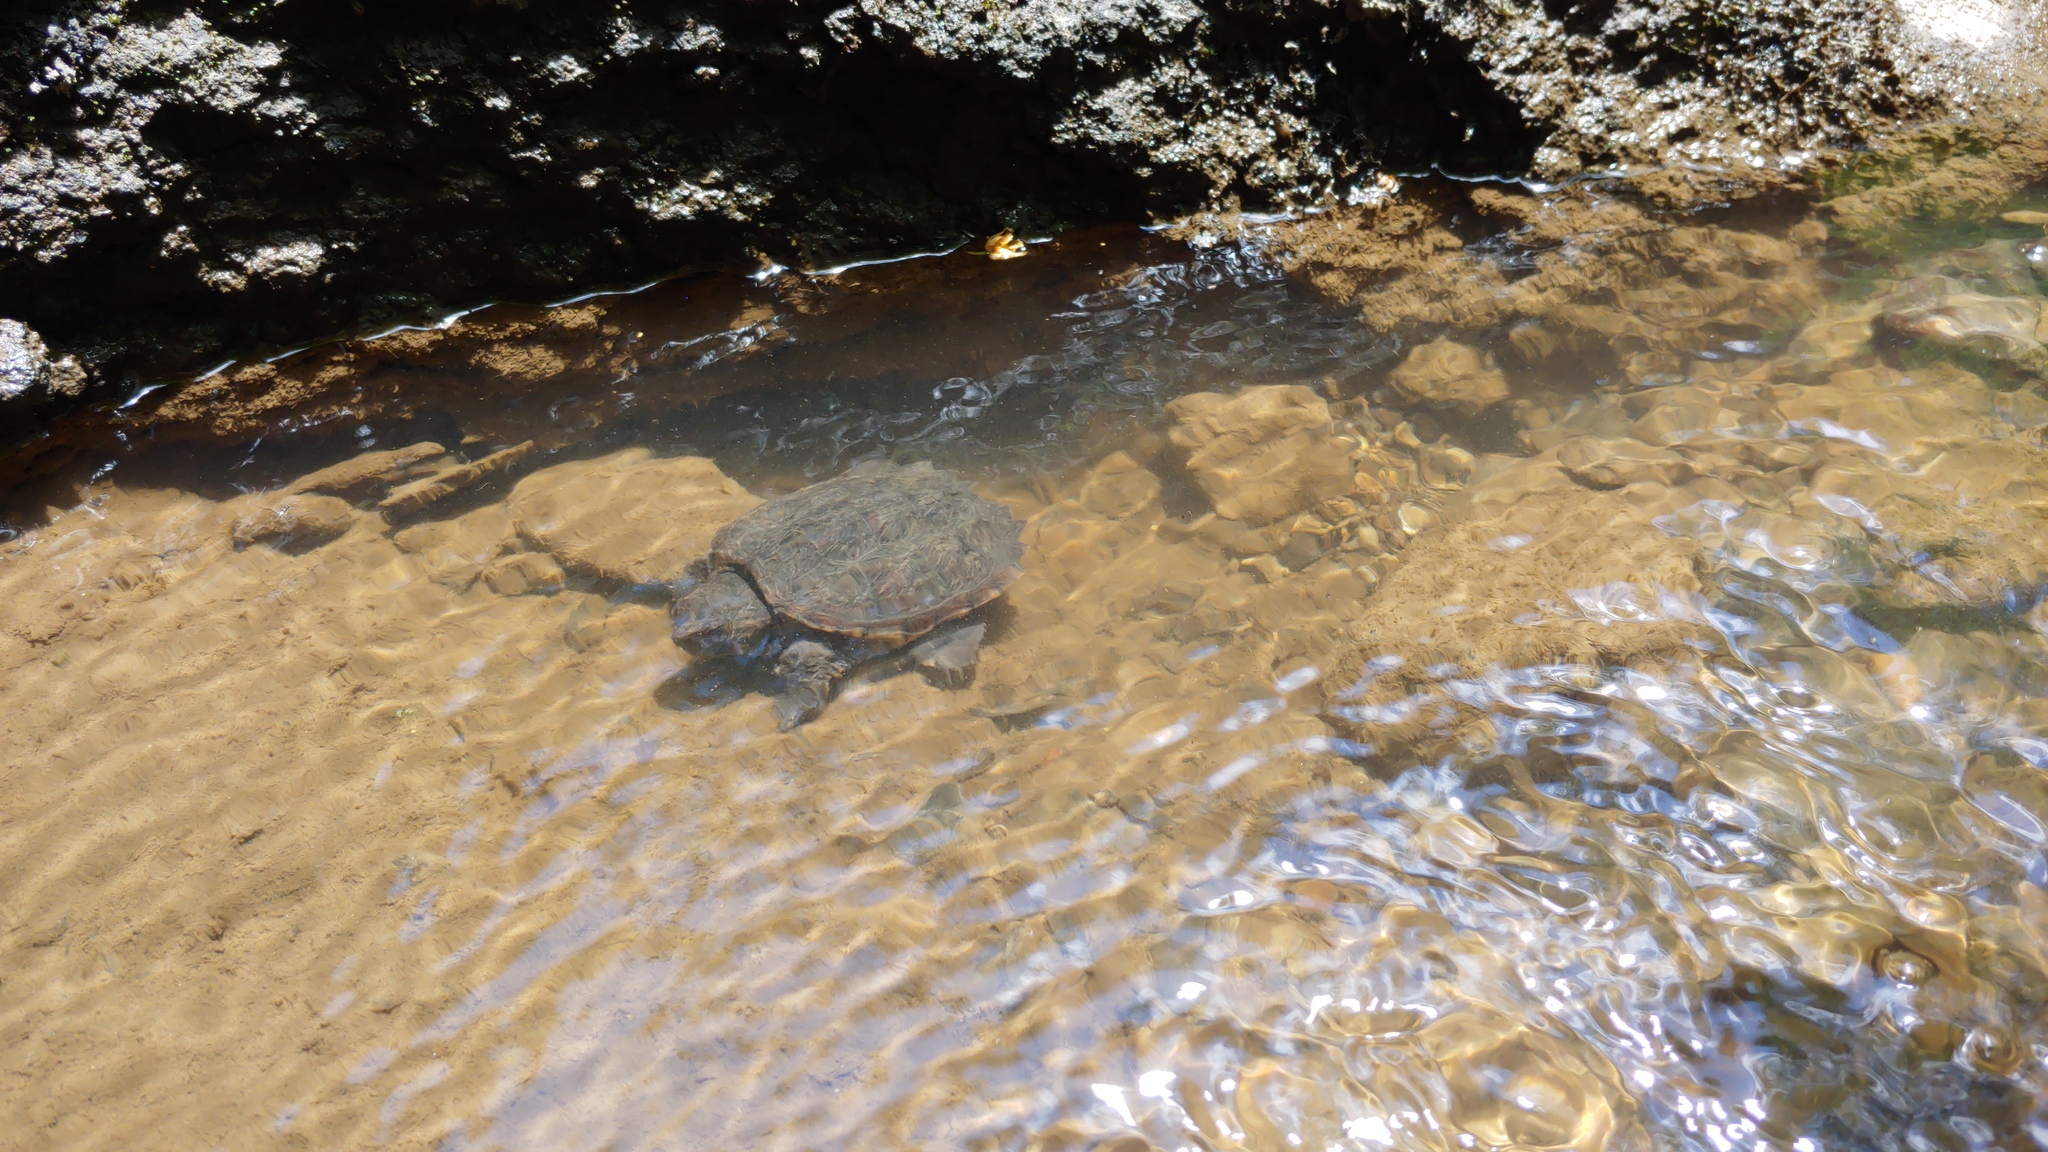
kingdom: Animalia
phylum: Chordata
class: Testudines
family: Chelydridae
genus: Chelydra
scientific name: Chelydra serpentina
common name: Common snapping turtle
